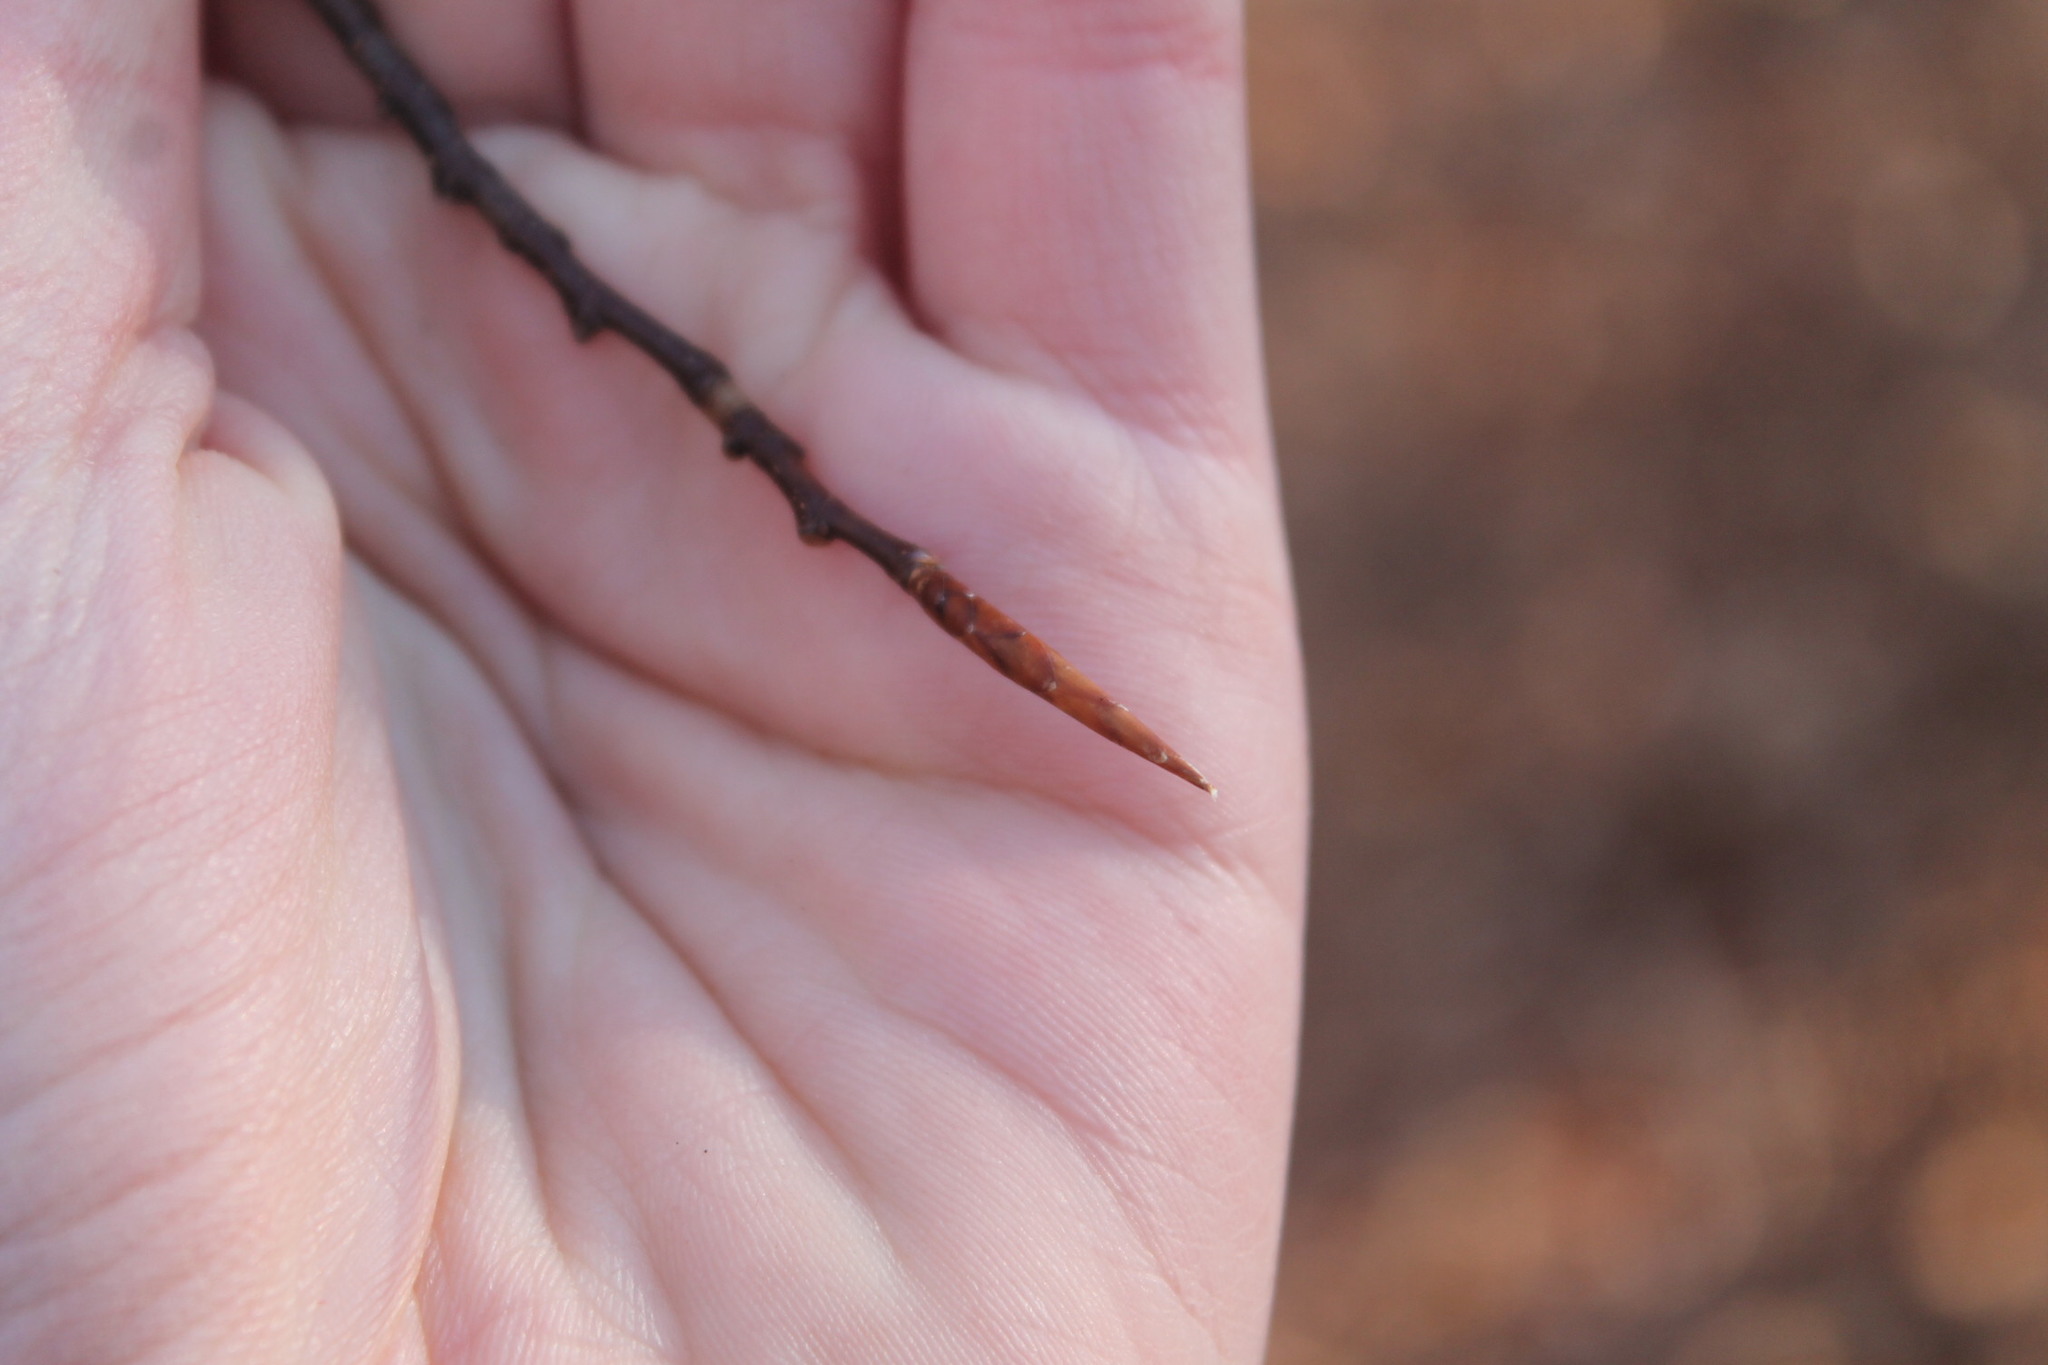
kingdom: Plantae
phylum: Tracheophyta
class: Magnoliopsida
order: Fagales
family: Fagaceae
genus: Fagus
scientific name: Fagus grandifolia
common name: American beech
